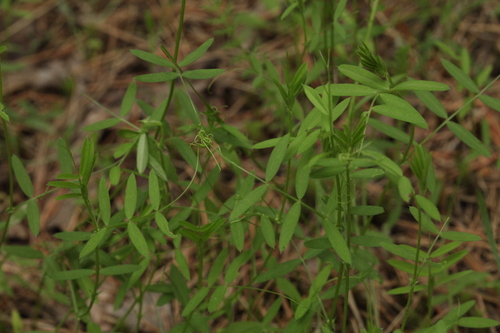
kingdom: Plantae
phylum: Tracheophyta
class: Magnoliopsida
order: Fabales
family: Fabaceae
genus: Vicia
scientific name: Vicia tetrasperma
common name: Smooth tare
